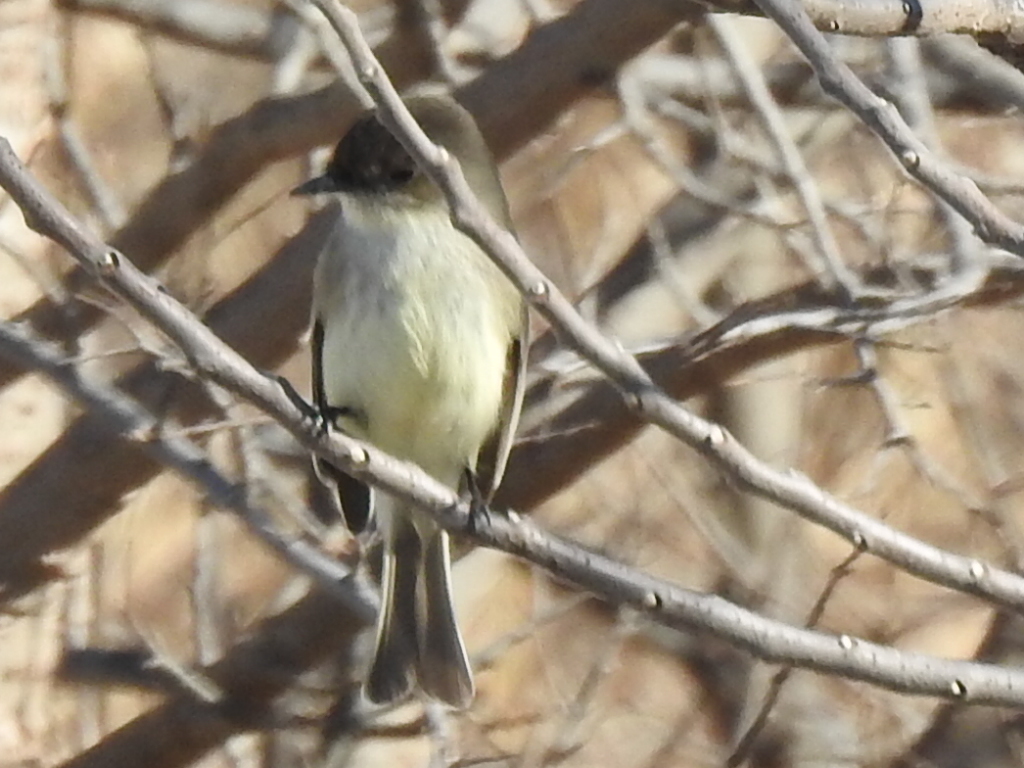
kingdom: Animalia
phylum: Chordata
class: Aves
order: Passeriformes
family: Tyrannidae
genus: Sayornis
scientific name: Sayornis phoebe
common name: Eastern phoebe
